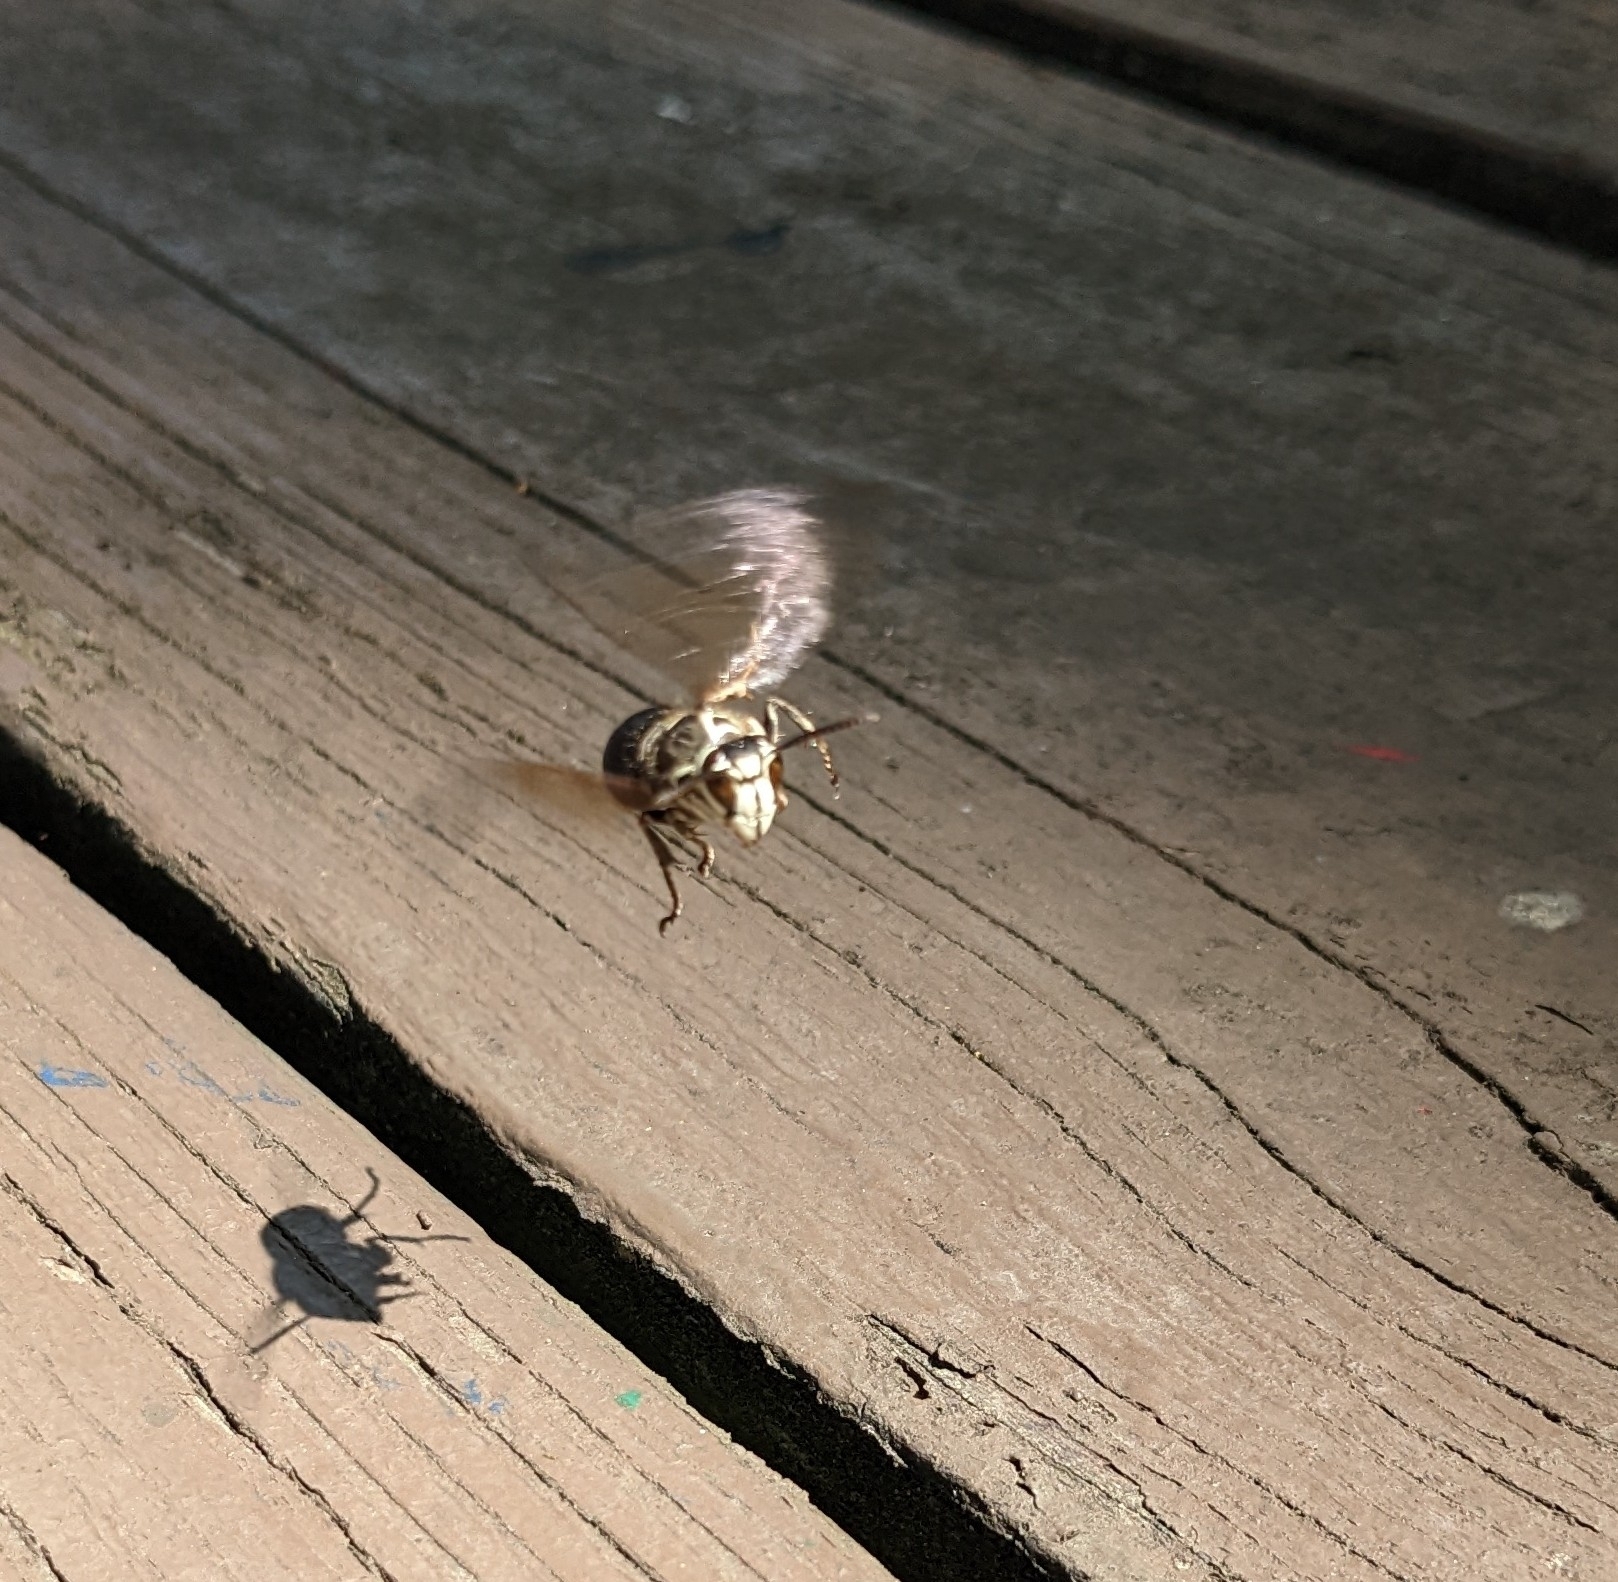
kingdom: Animalia
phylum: Arthropoda
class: Insecta
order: Hymenoptera
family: Vespidae
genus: Dolichovespula
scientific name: Dolichovespula maculata
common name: Bald-faced hornet
